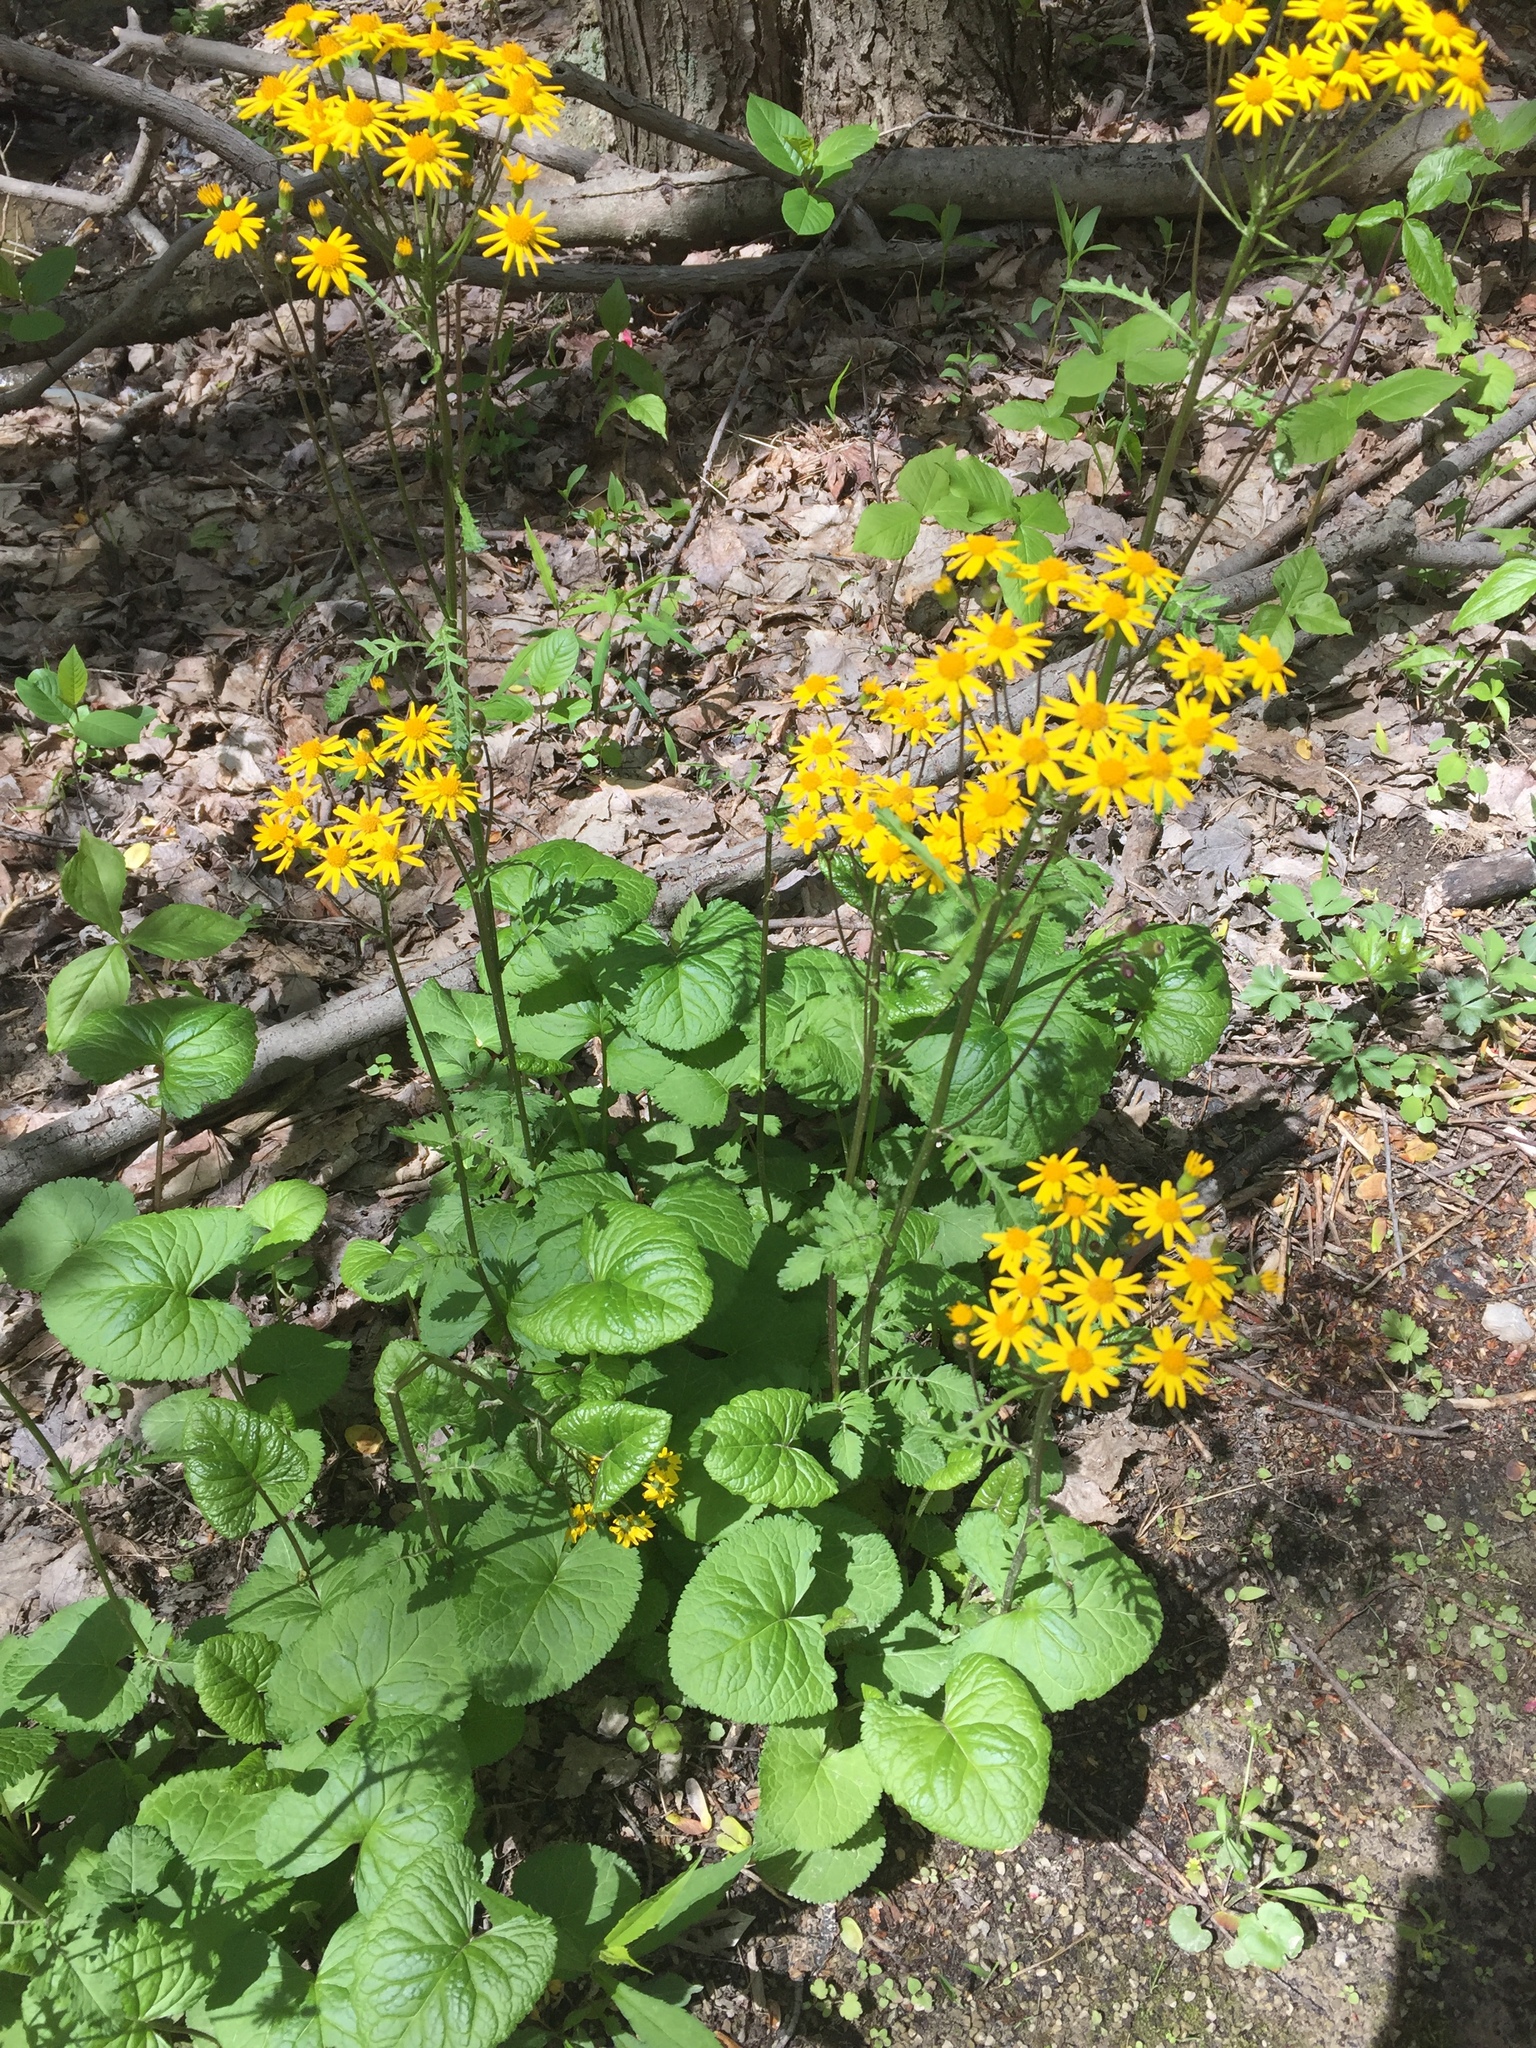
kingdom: Plantae
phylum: Tracheophyta
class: Magnoliopsida
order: Asterales
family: Asteraceae
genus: Packera
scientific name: Packera aurea
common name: Golden groundsel
